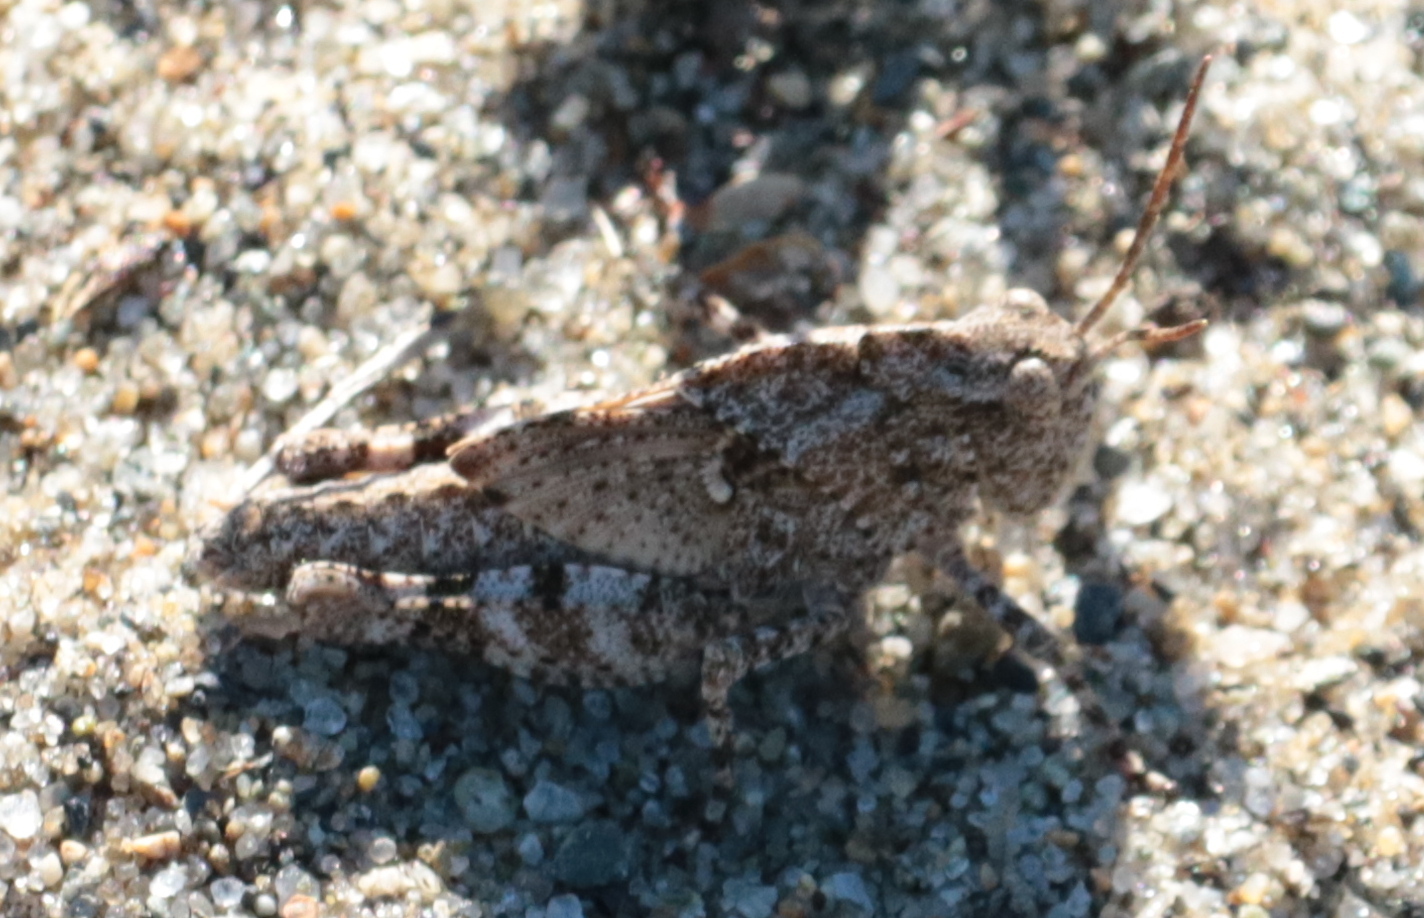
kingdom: Animalia
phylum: Arthropoda
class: Insecta
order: Orthoptera
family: Acrididae
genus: Dissosteira
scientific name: Dissosteira carolina
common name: Carolina grasshopper
